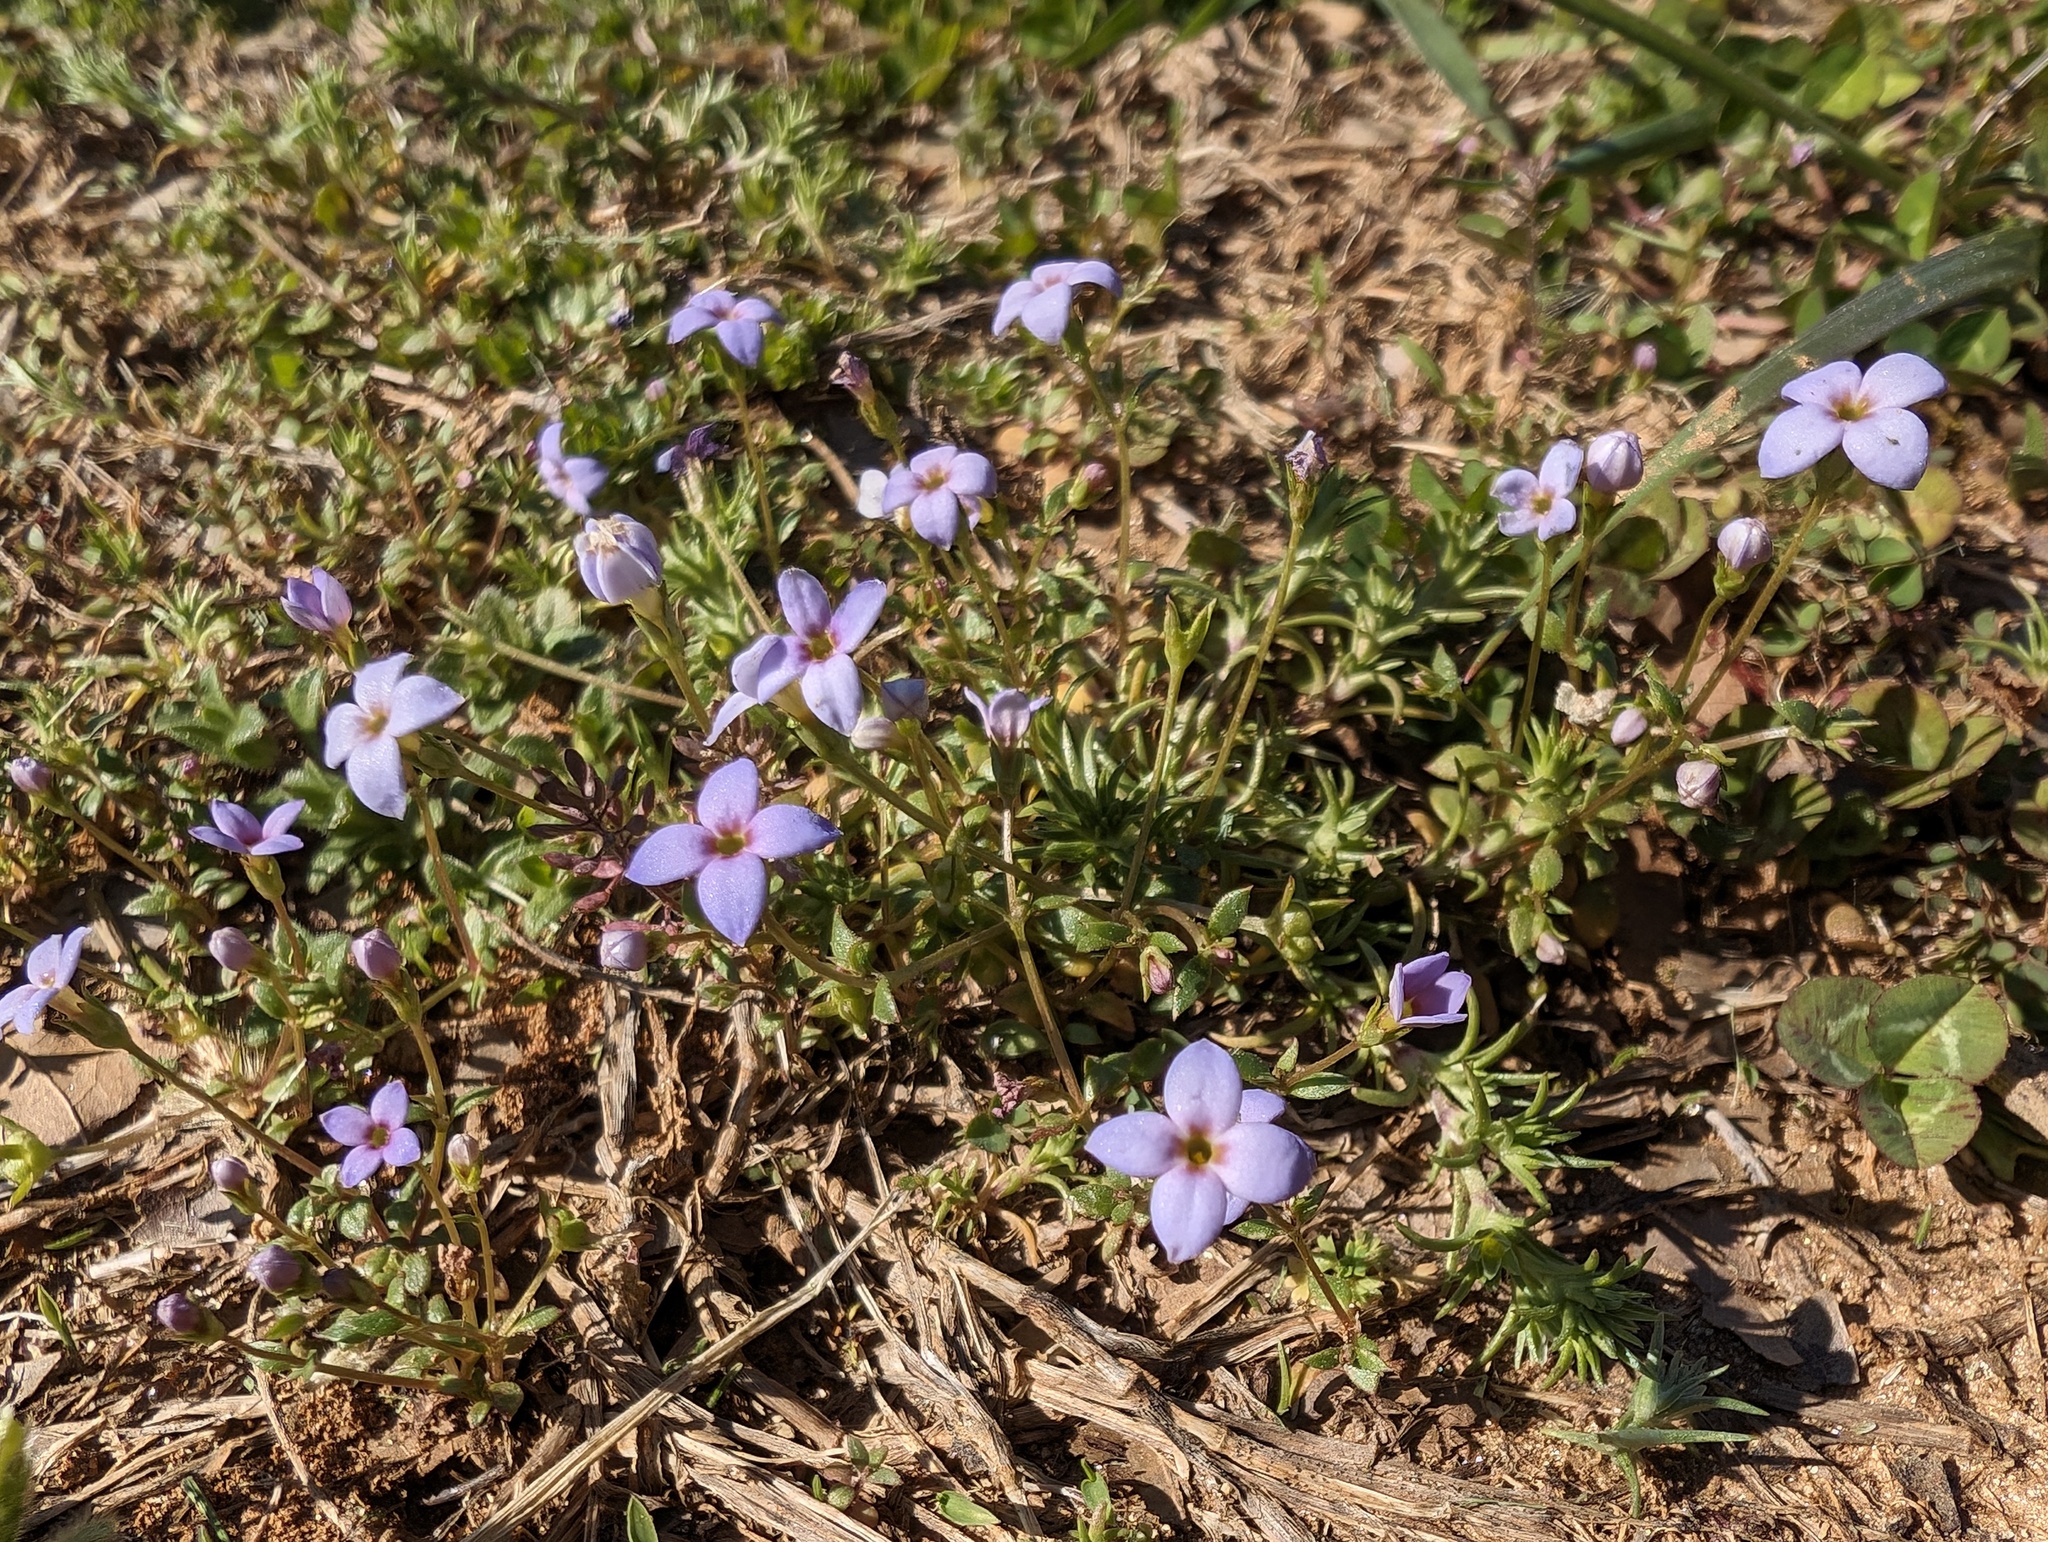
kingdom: Plantae
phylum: Tracheophyta
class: Magnoliopsida
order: Gentianales
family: Rubiaceae
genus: Houstonia
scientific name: Houstonia pusilla
